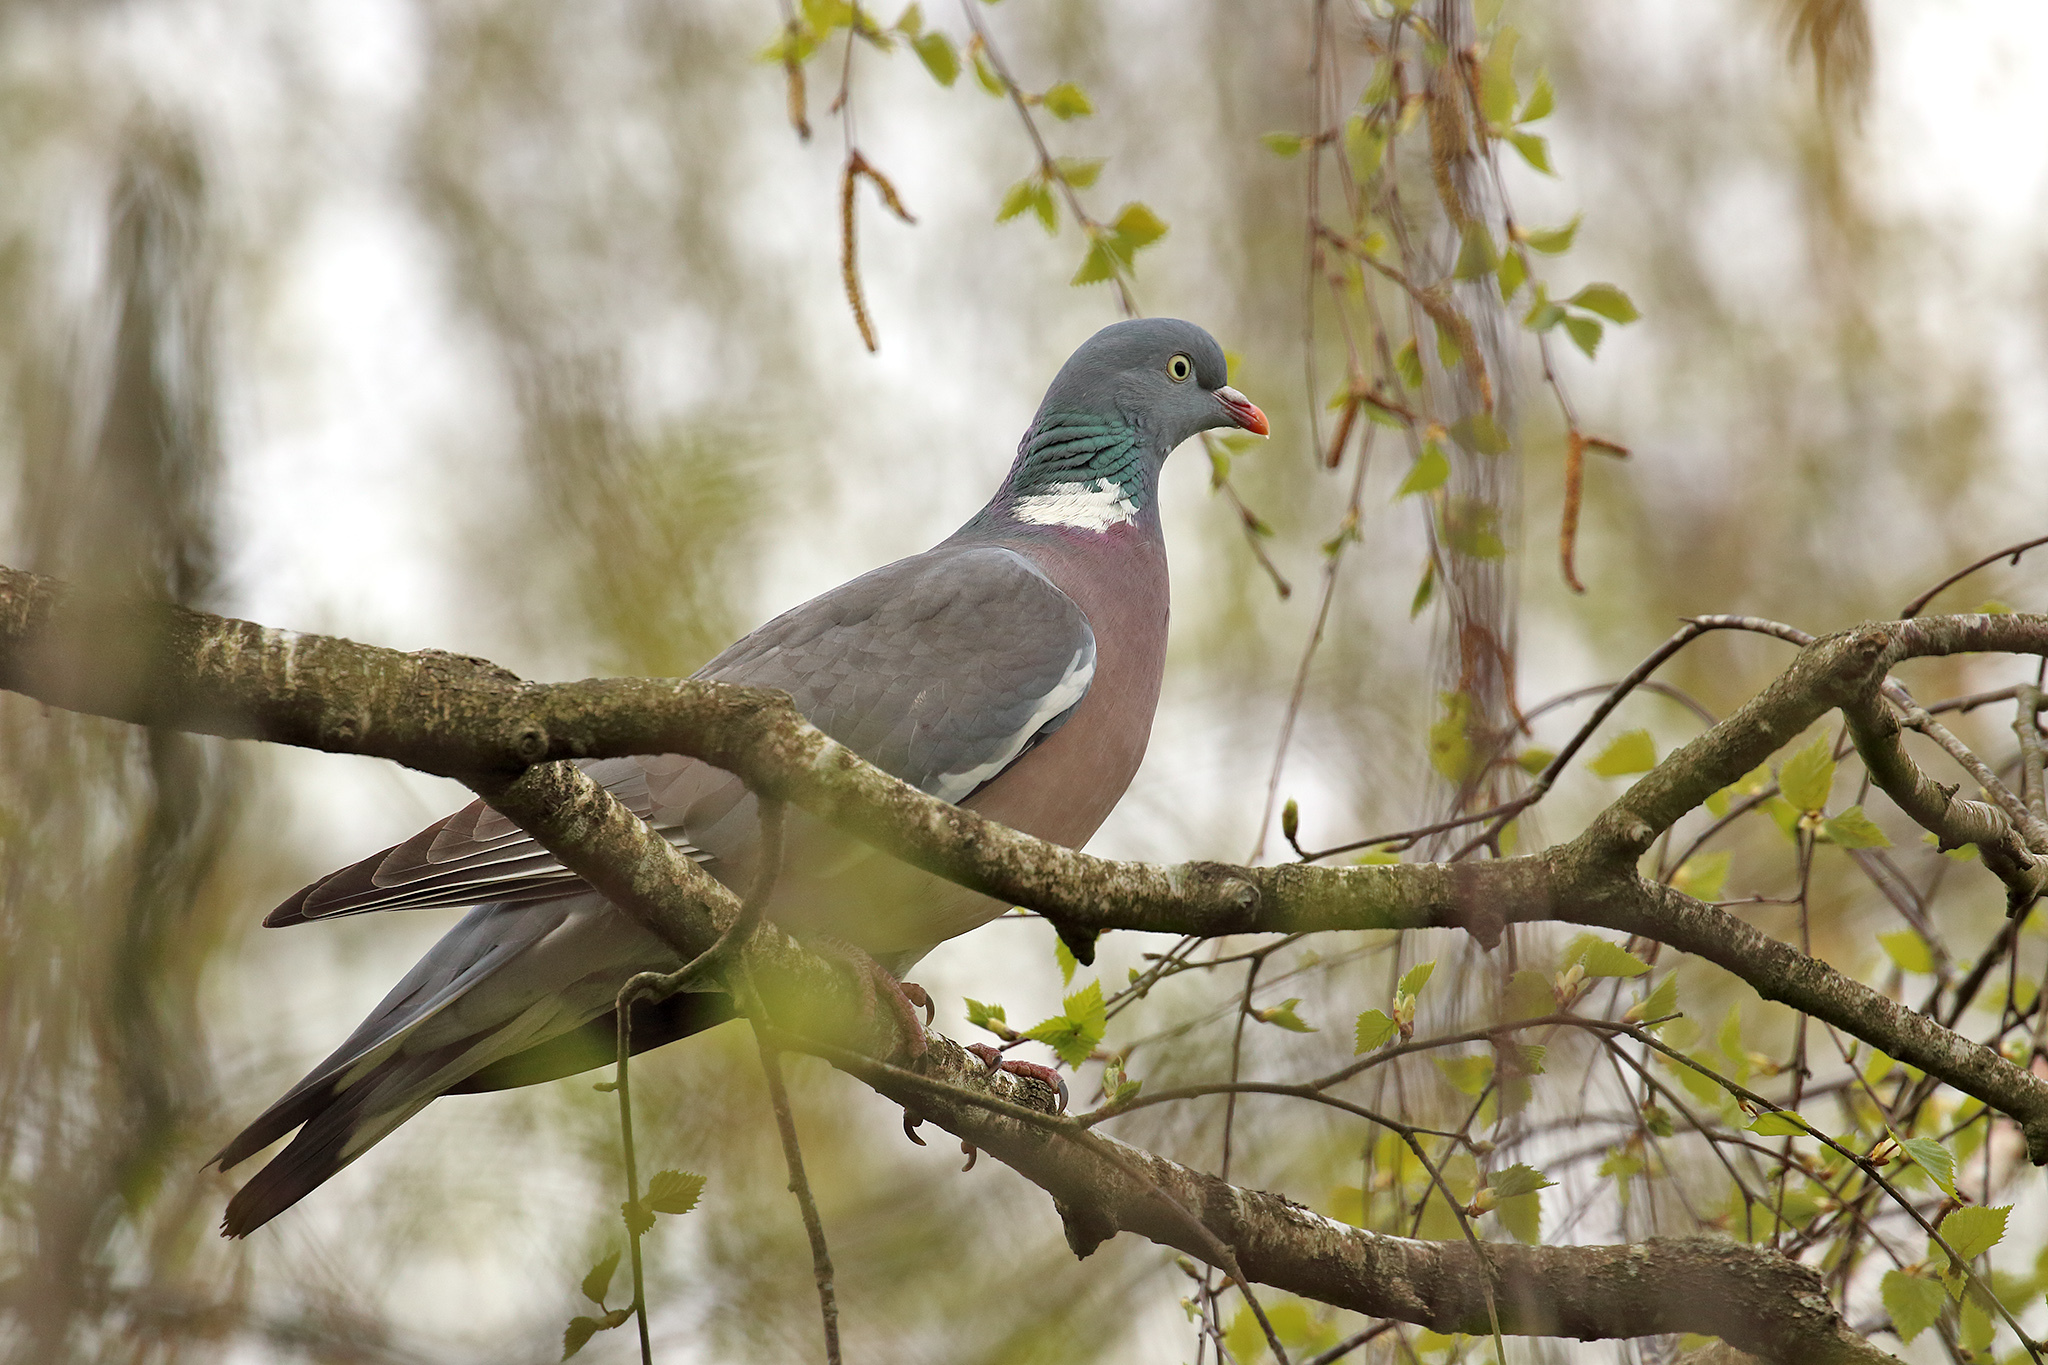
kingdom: Animalia
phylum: Chordata
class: Aves
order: Columbiformes
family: Columbidae
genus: Columba
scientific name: Columba palumbus
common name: Common wood pigeon
